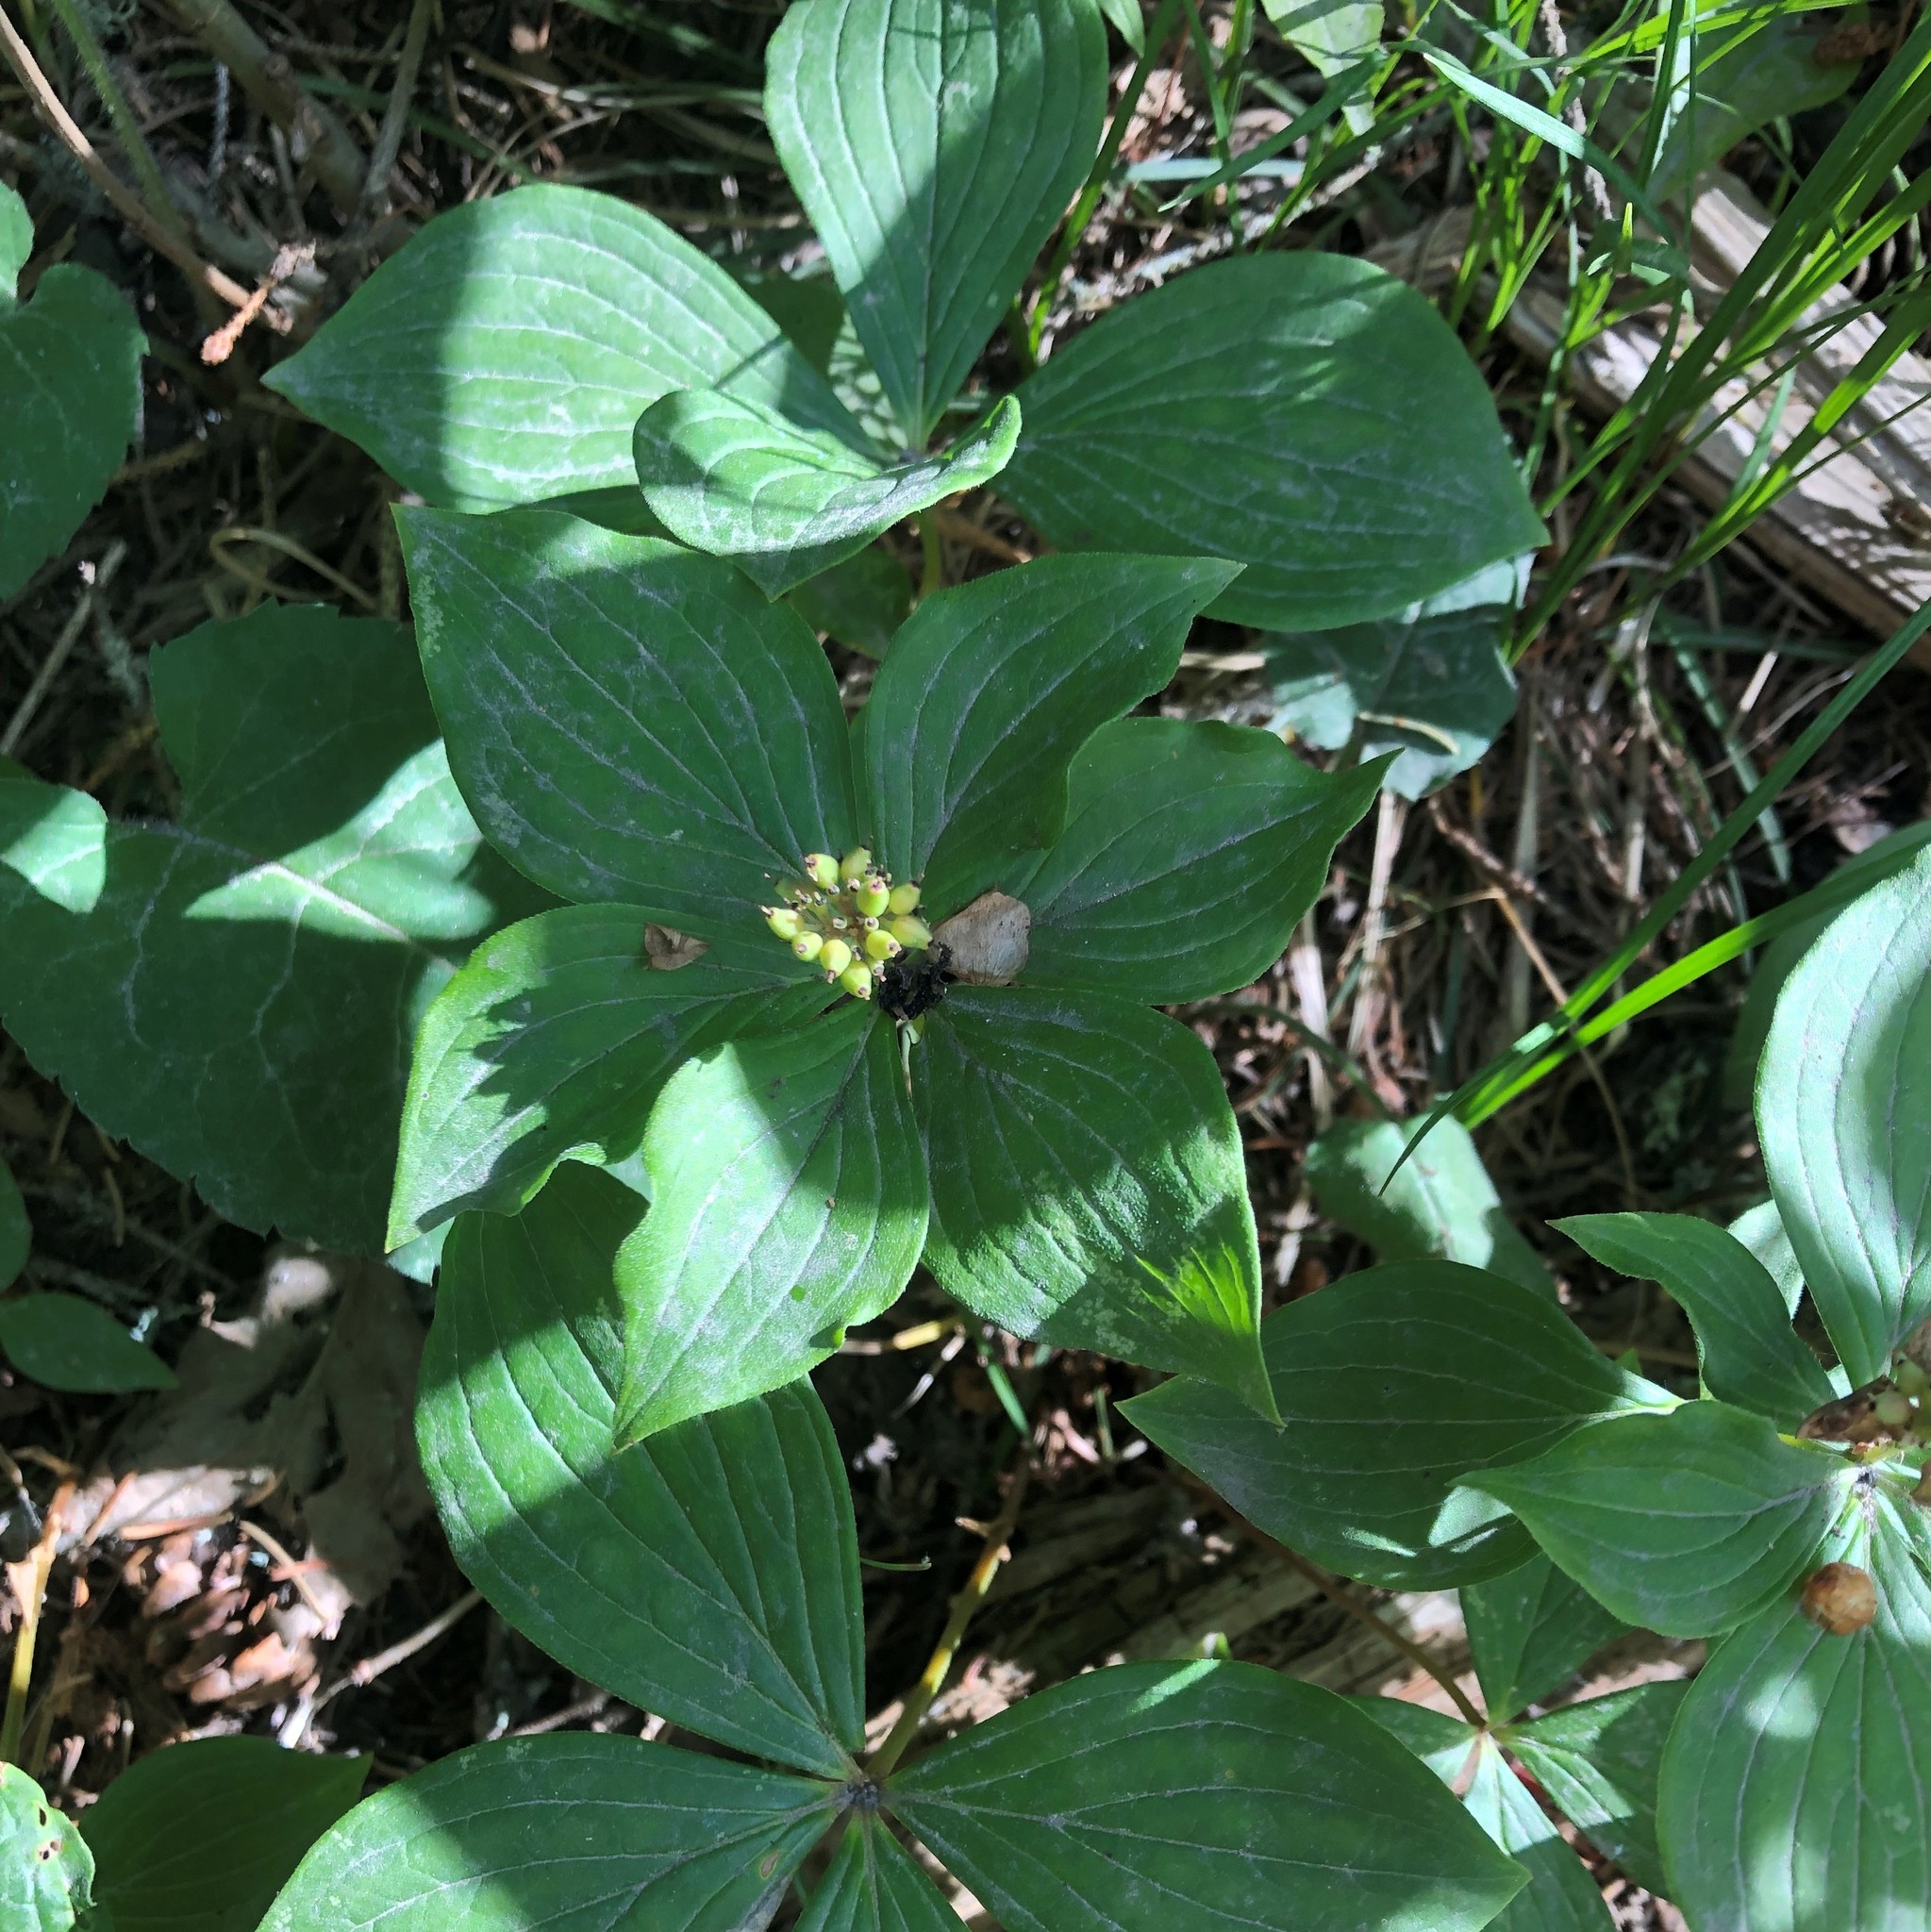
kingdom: Plantae
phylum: Tracheophyta
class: Magnoliopsida
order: Cornales
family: Cornaceae
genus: Cornus
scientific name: Cornus canadensis
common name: Creeping dogwood
